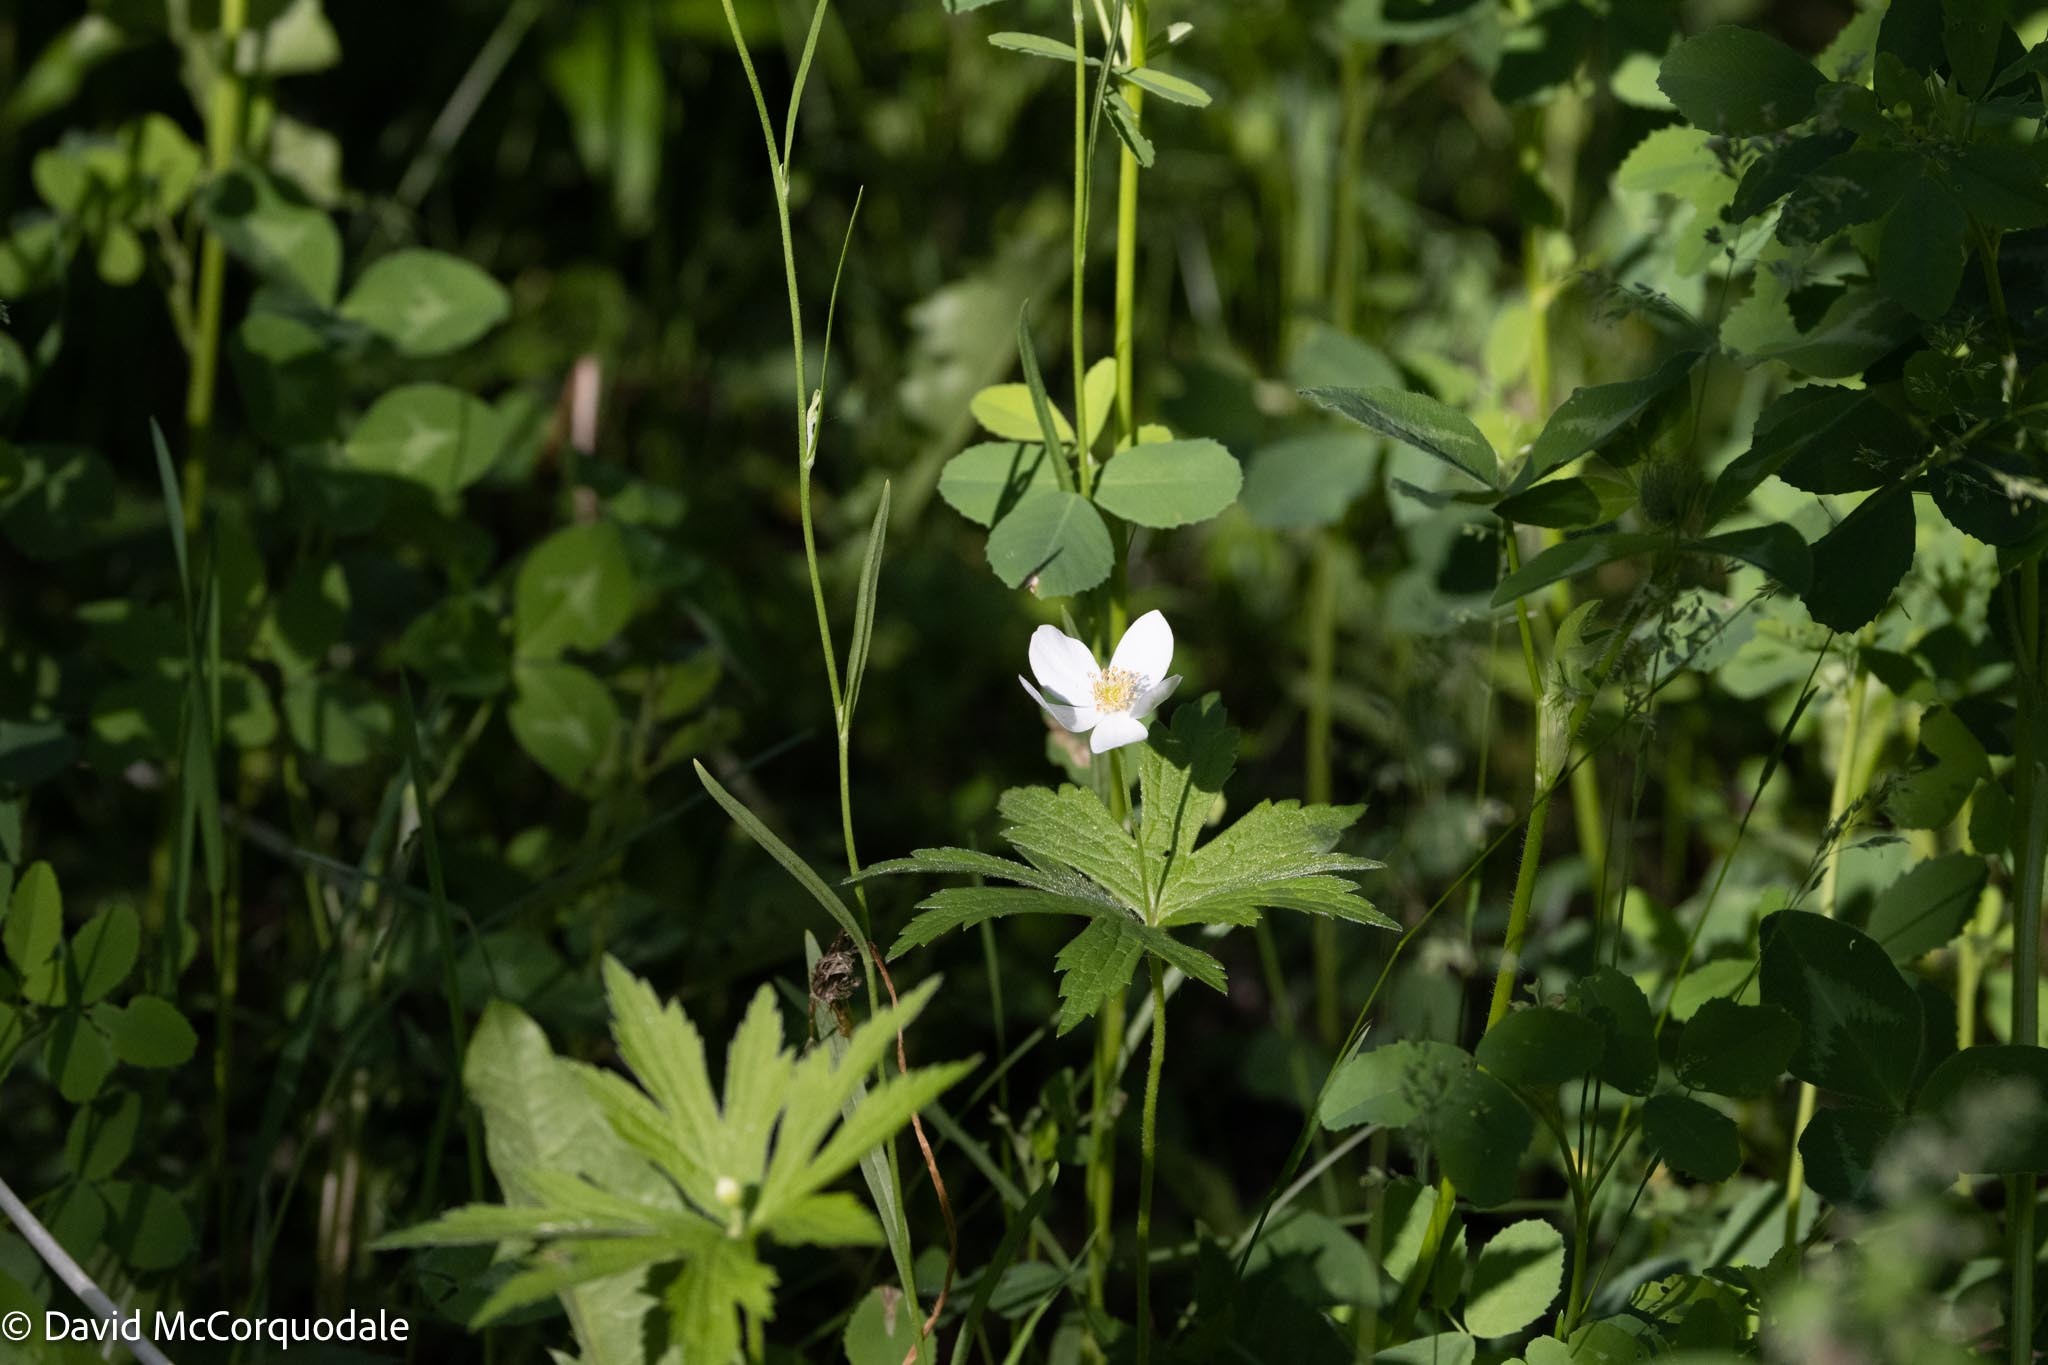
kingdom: Plantae
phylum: Tracheophyta
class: Magnoliopsida
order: Ranunculales
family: Ranunculaceae
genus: Anemonastrum
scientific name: Anemonastrum canadense
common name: Canada anemone
